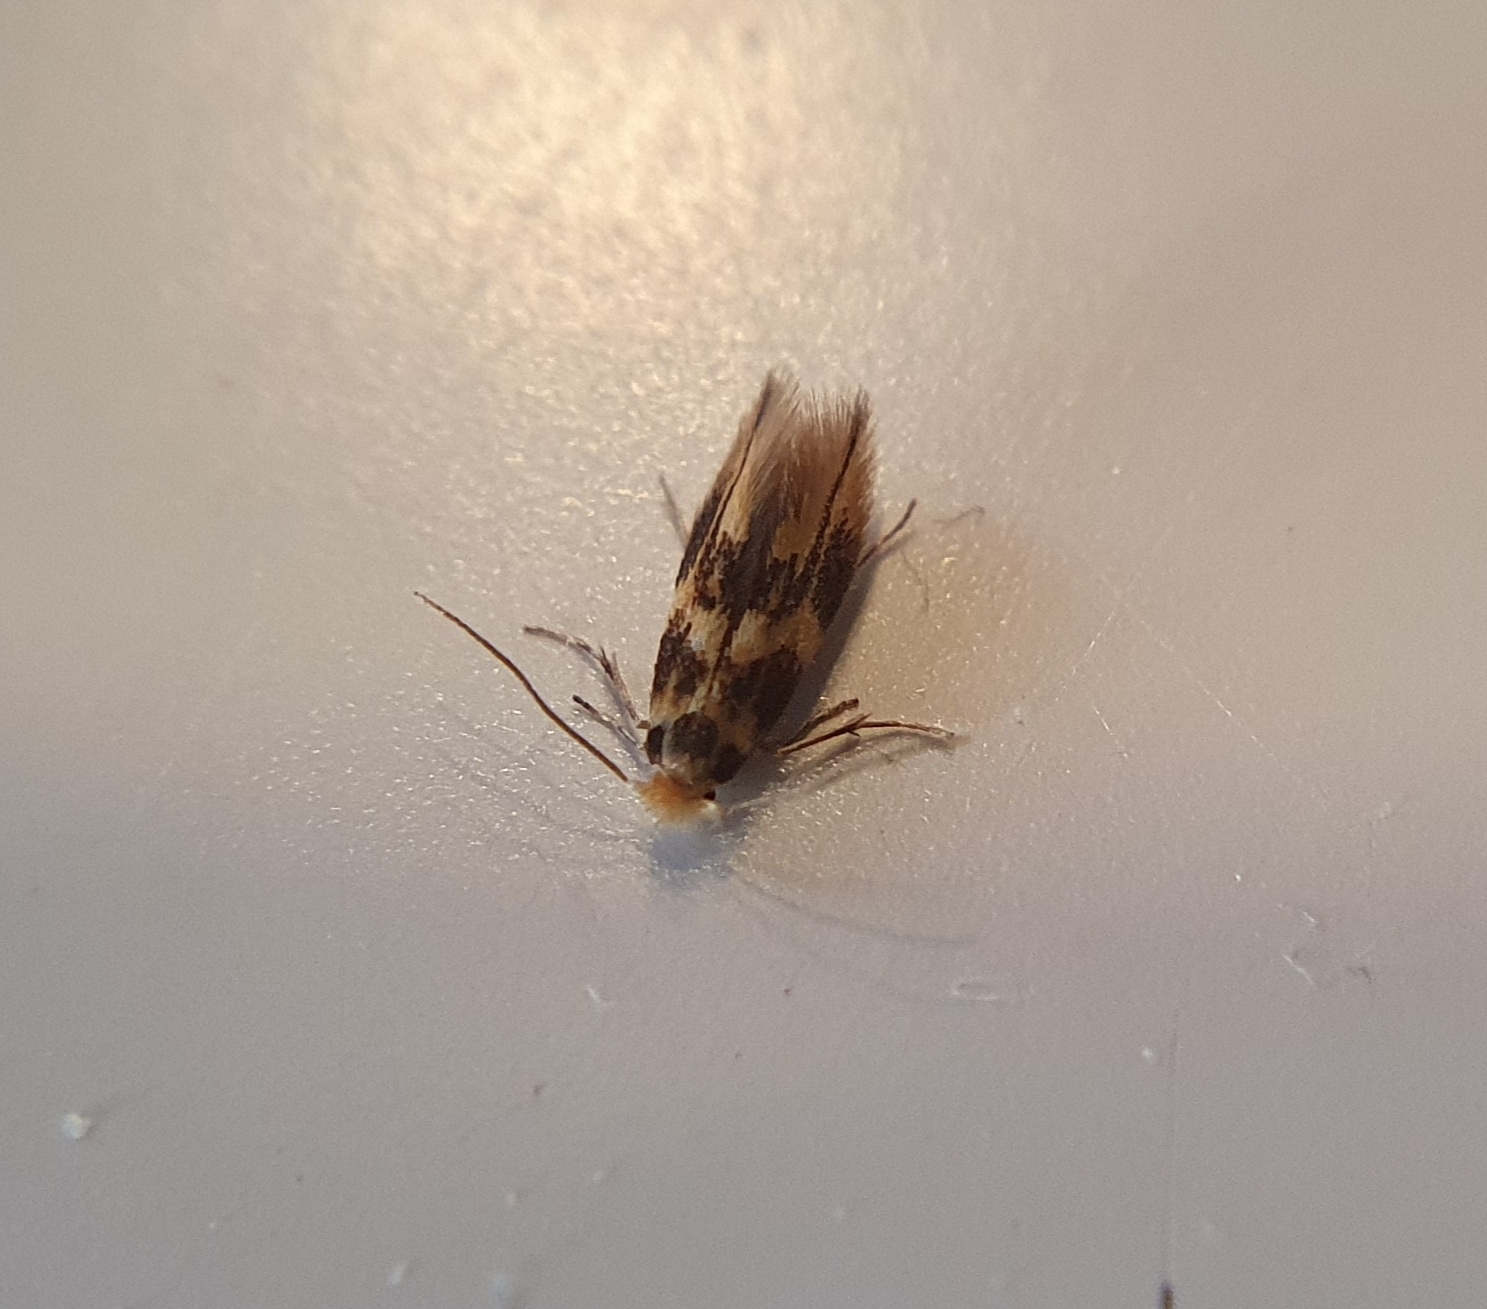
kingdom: Animalia
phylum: Arthropoda
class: Insecta
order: Lepidoptera
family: Bucculatricidae
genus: Bucculatrix
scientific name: Bucculatrix thoracella
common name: Lime bent-wing
